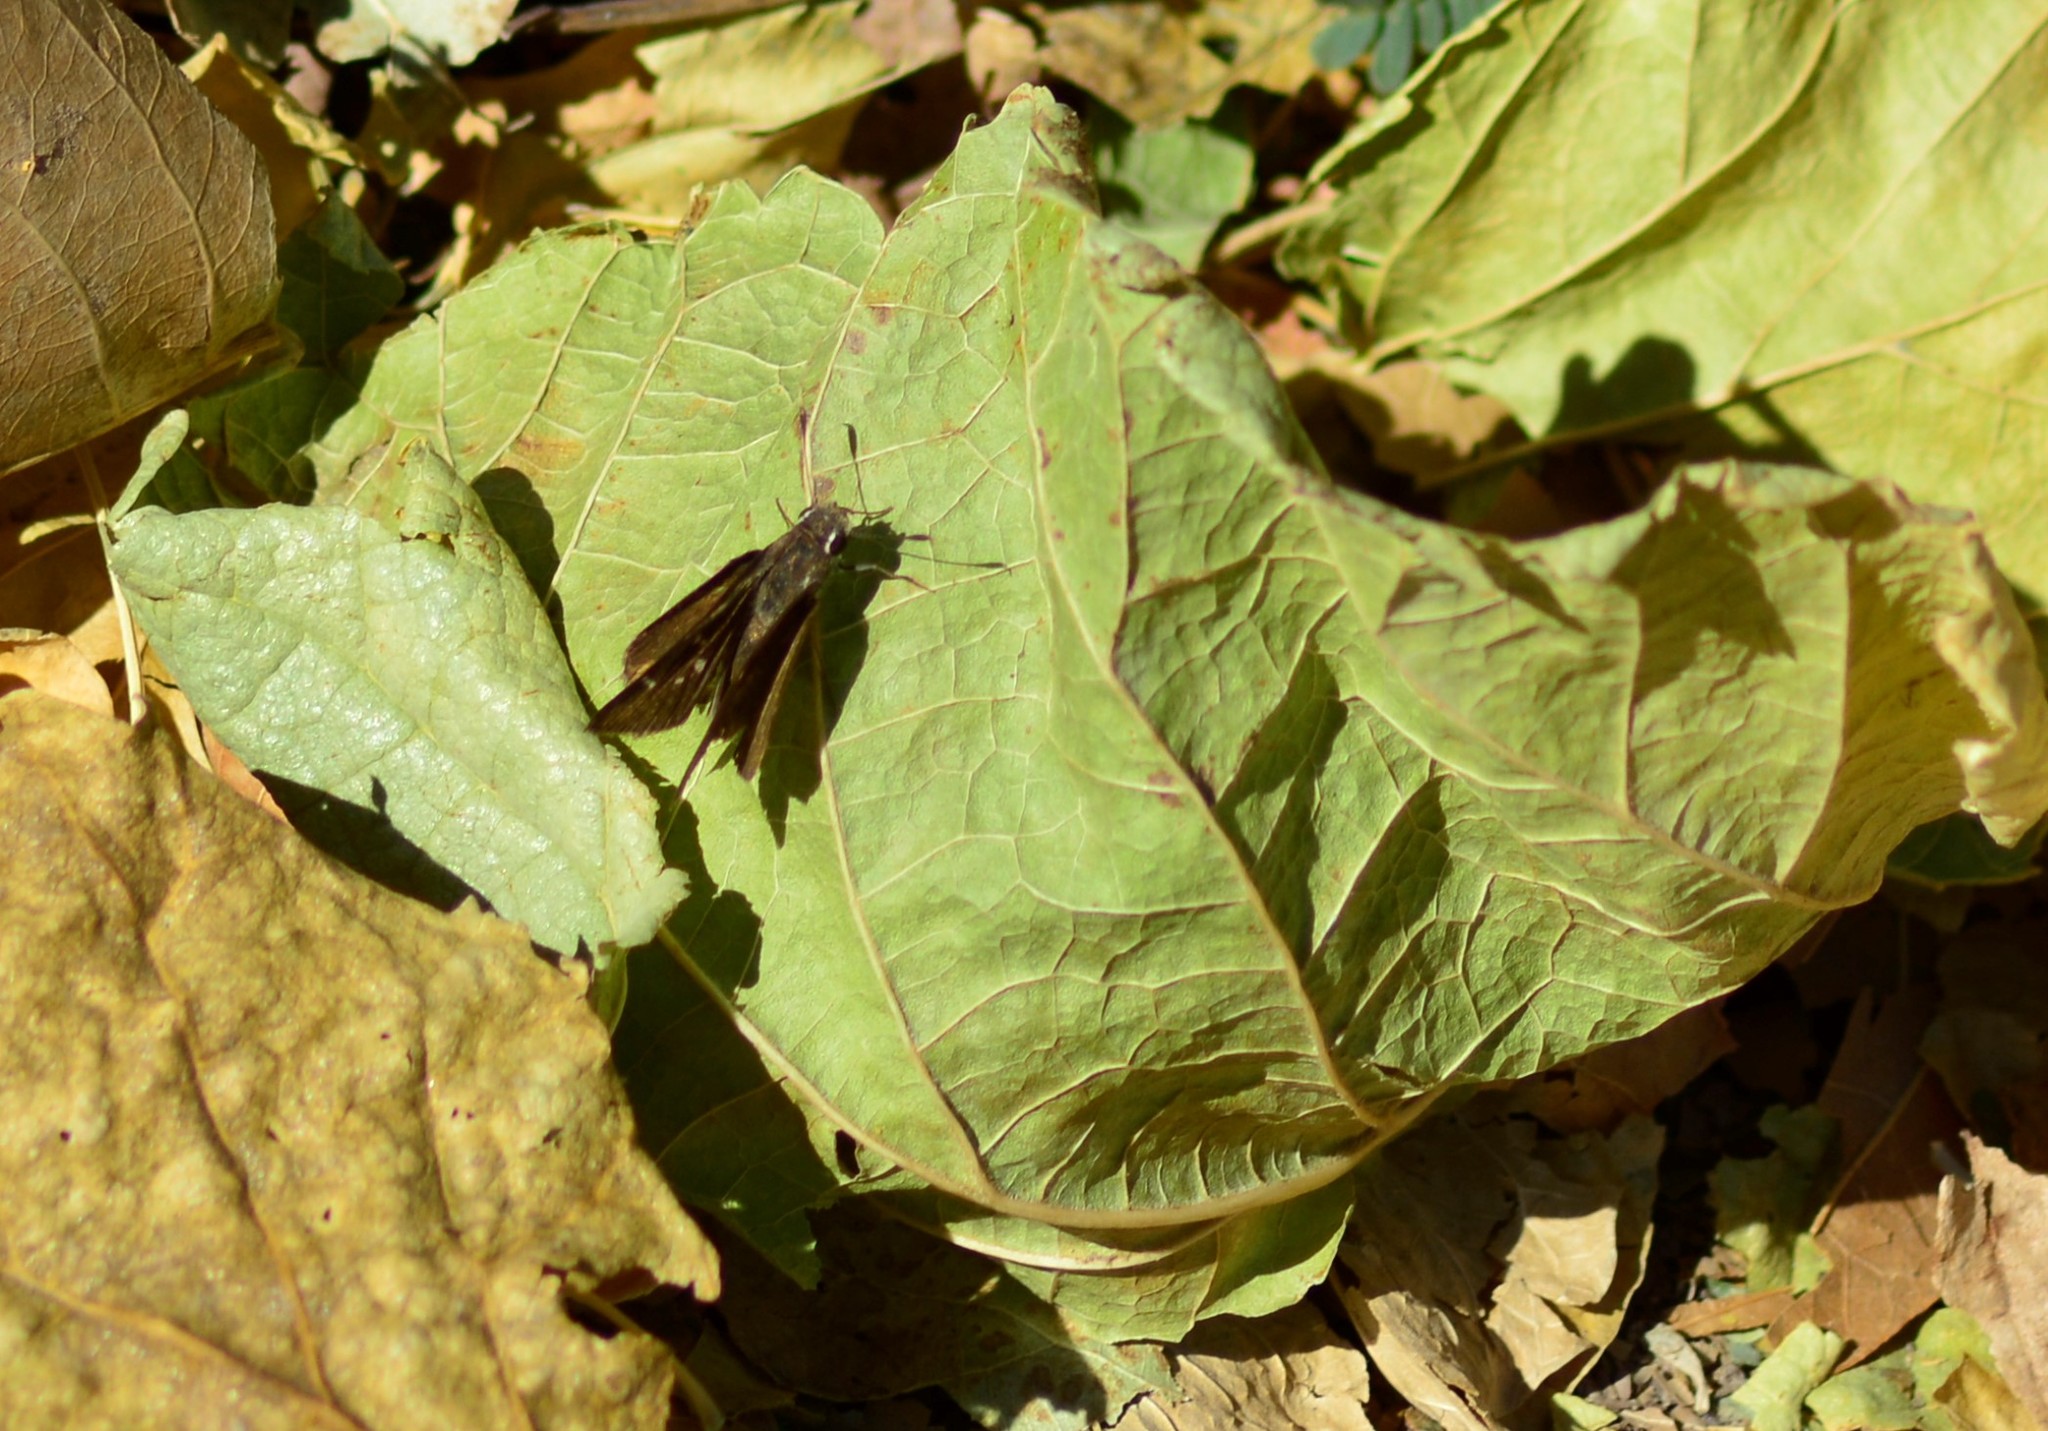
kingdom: Animalia
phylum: Arthropoda
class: Insecta
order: Lepidoptera
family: Hesperiidae
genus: Lerodea
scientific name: Lerodea eufala
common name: Eufala skipper
